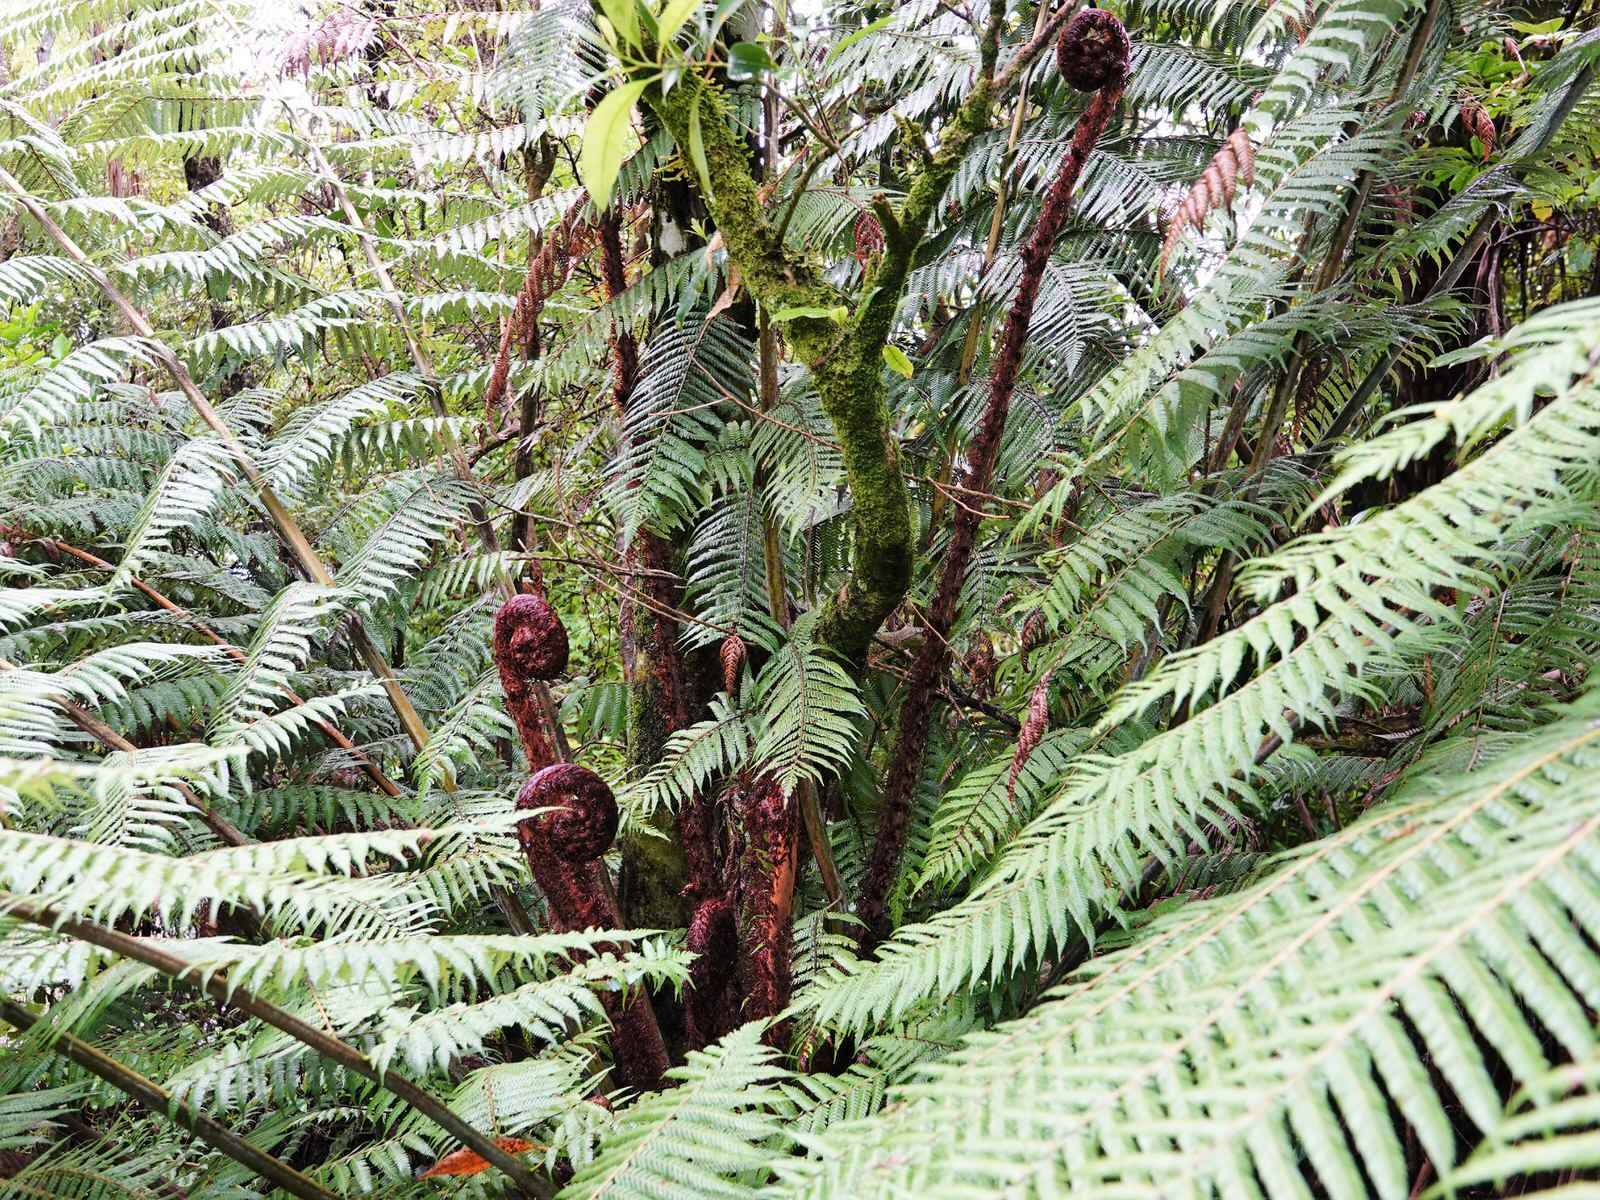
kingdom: Plantae
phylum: Tracheophyta
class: Polypodiopsida
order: Cyatheales
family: Cyatheaceae
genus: Alsophila
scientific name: Alsophila dealbata
